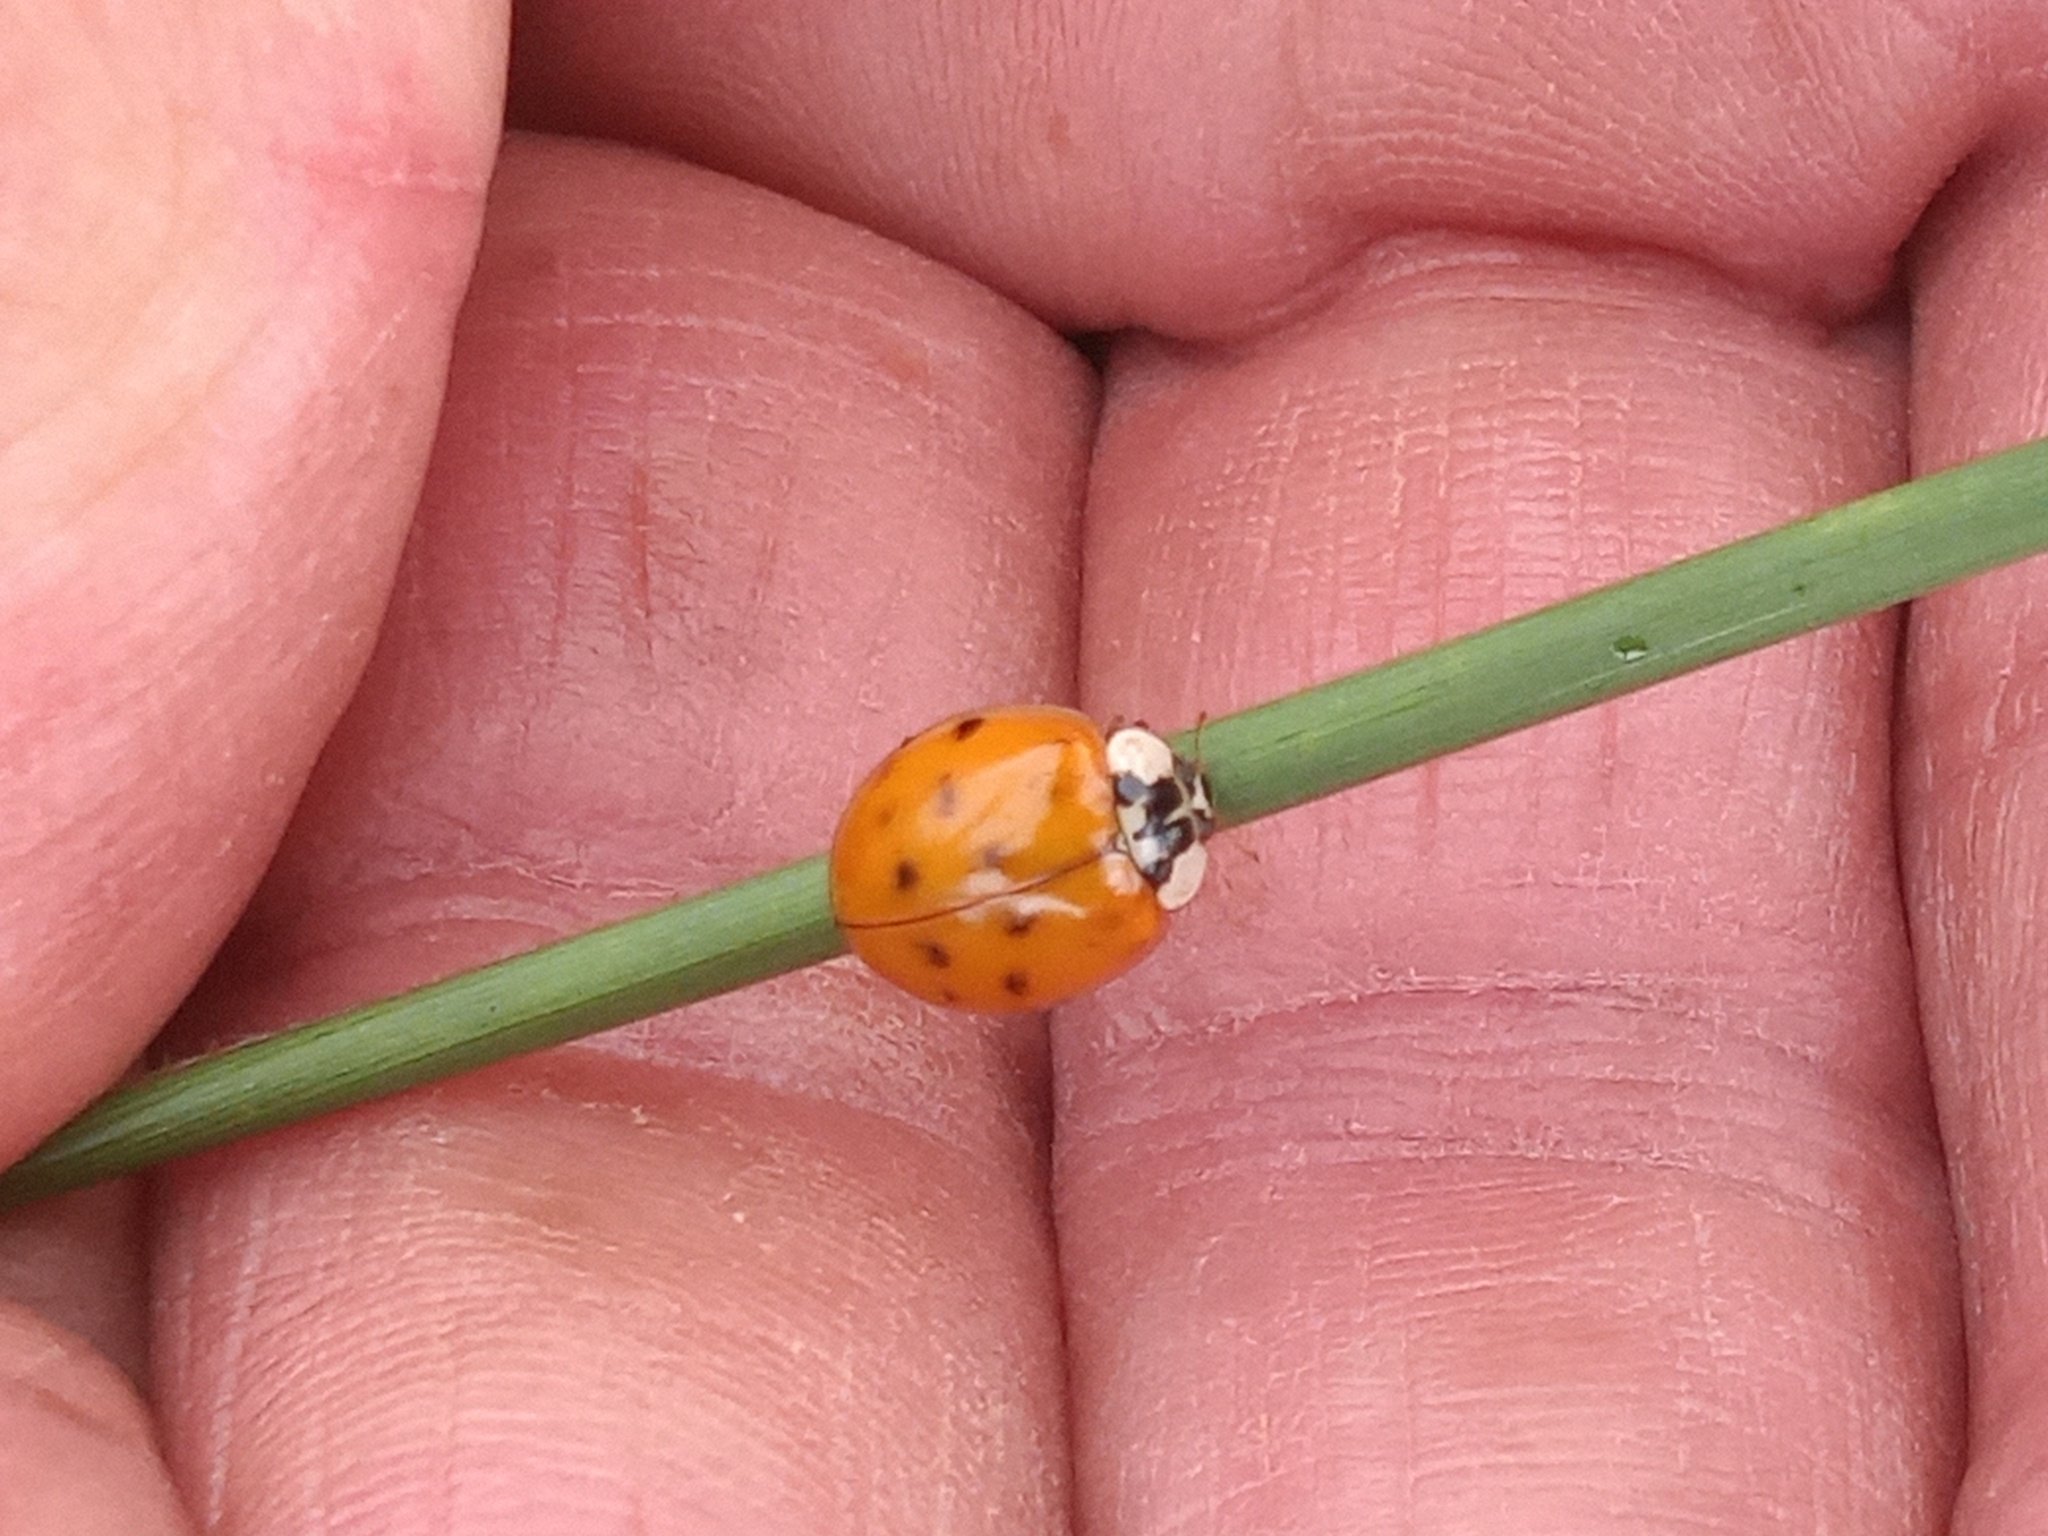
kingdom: Animalia
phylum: Arthropoda
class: Insecta
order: Coleoptera
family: Coccinellidae
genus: Harmonia
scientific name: Harmonia axyridis
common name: Harlequin ladybird
